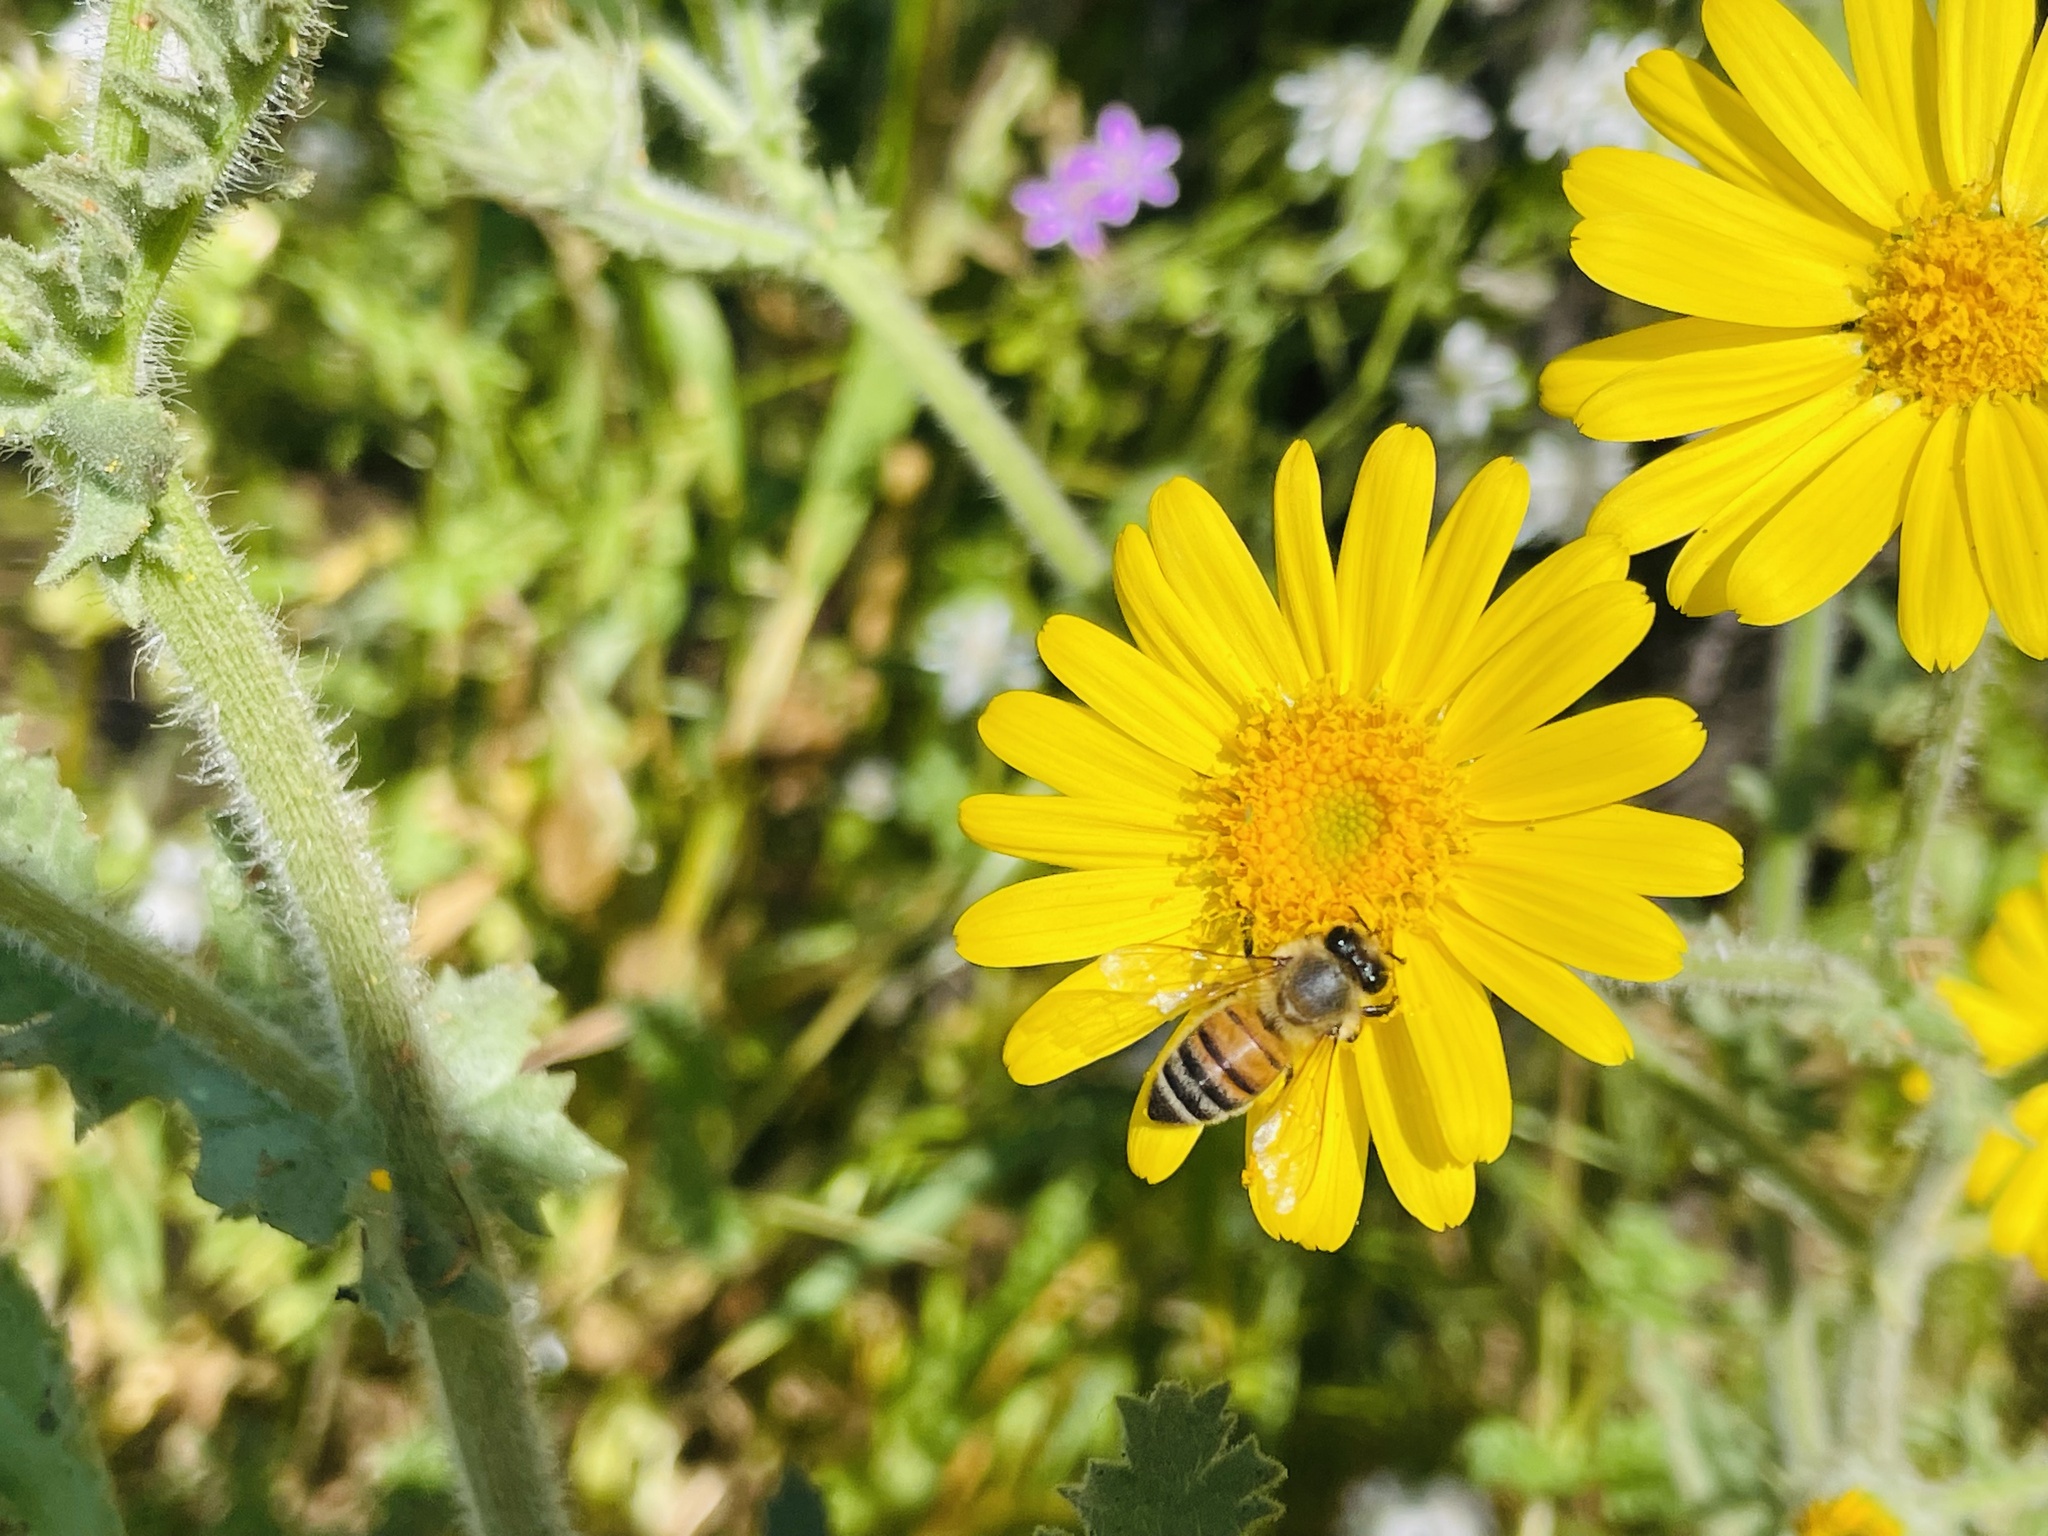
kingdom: Animalia
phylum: Arthropoda
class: Insecta
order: Hymenoptera
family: Apidae
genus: Apis
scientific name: Apis mellifera
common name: Honey bee
